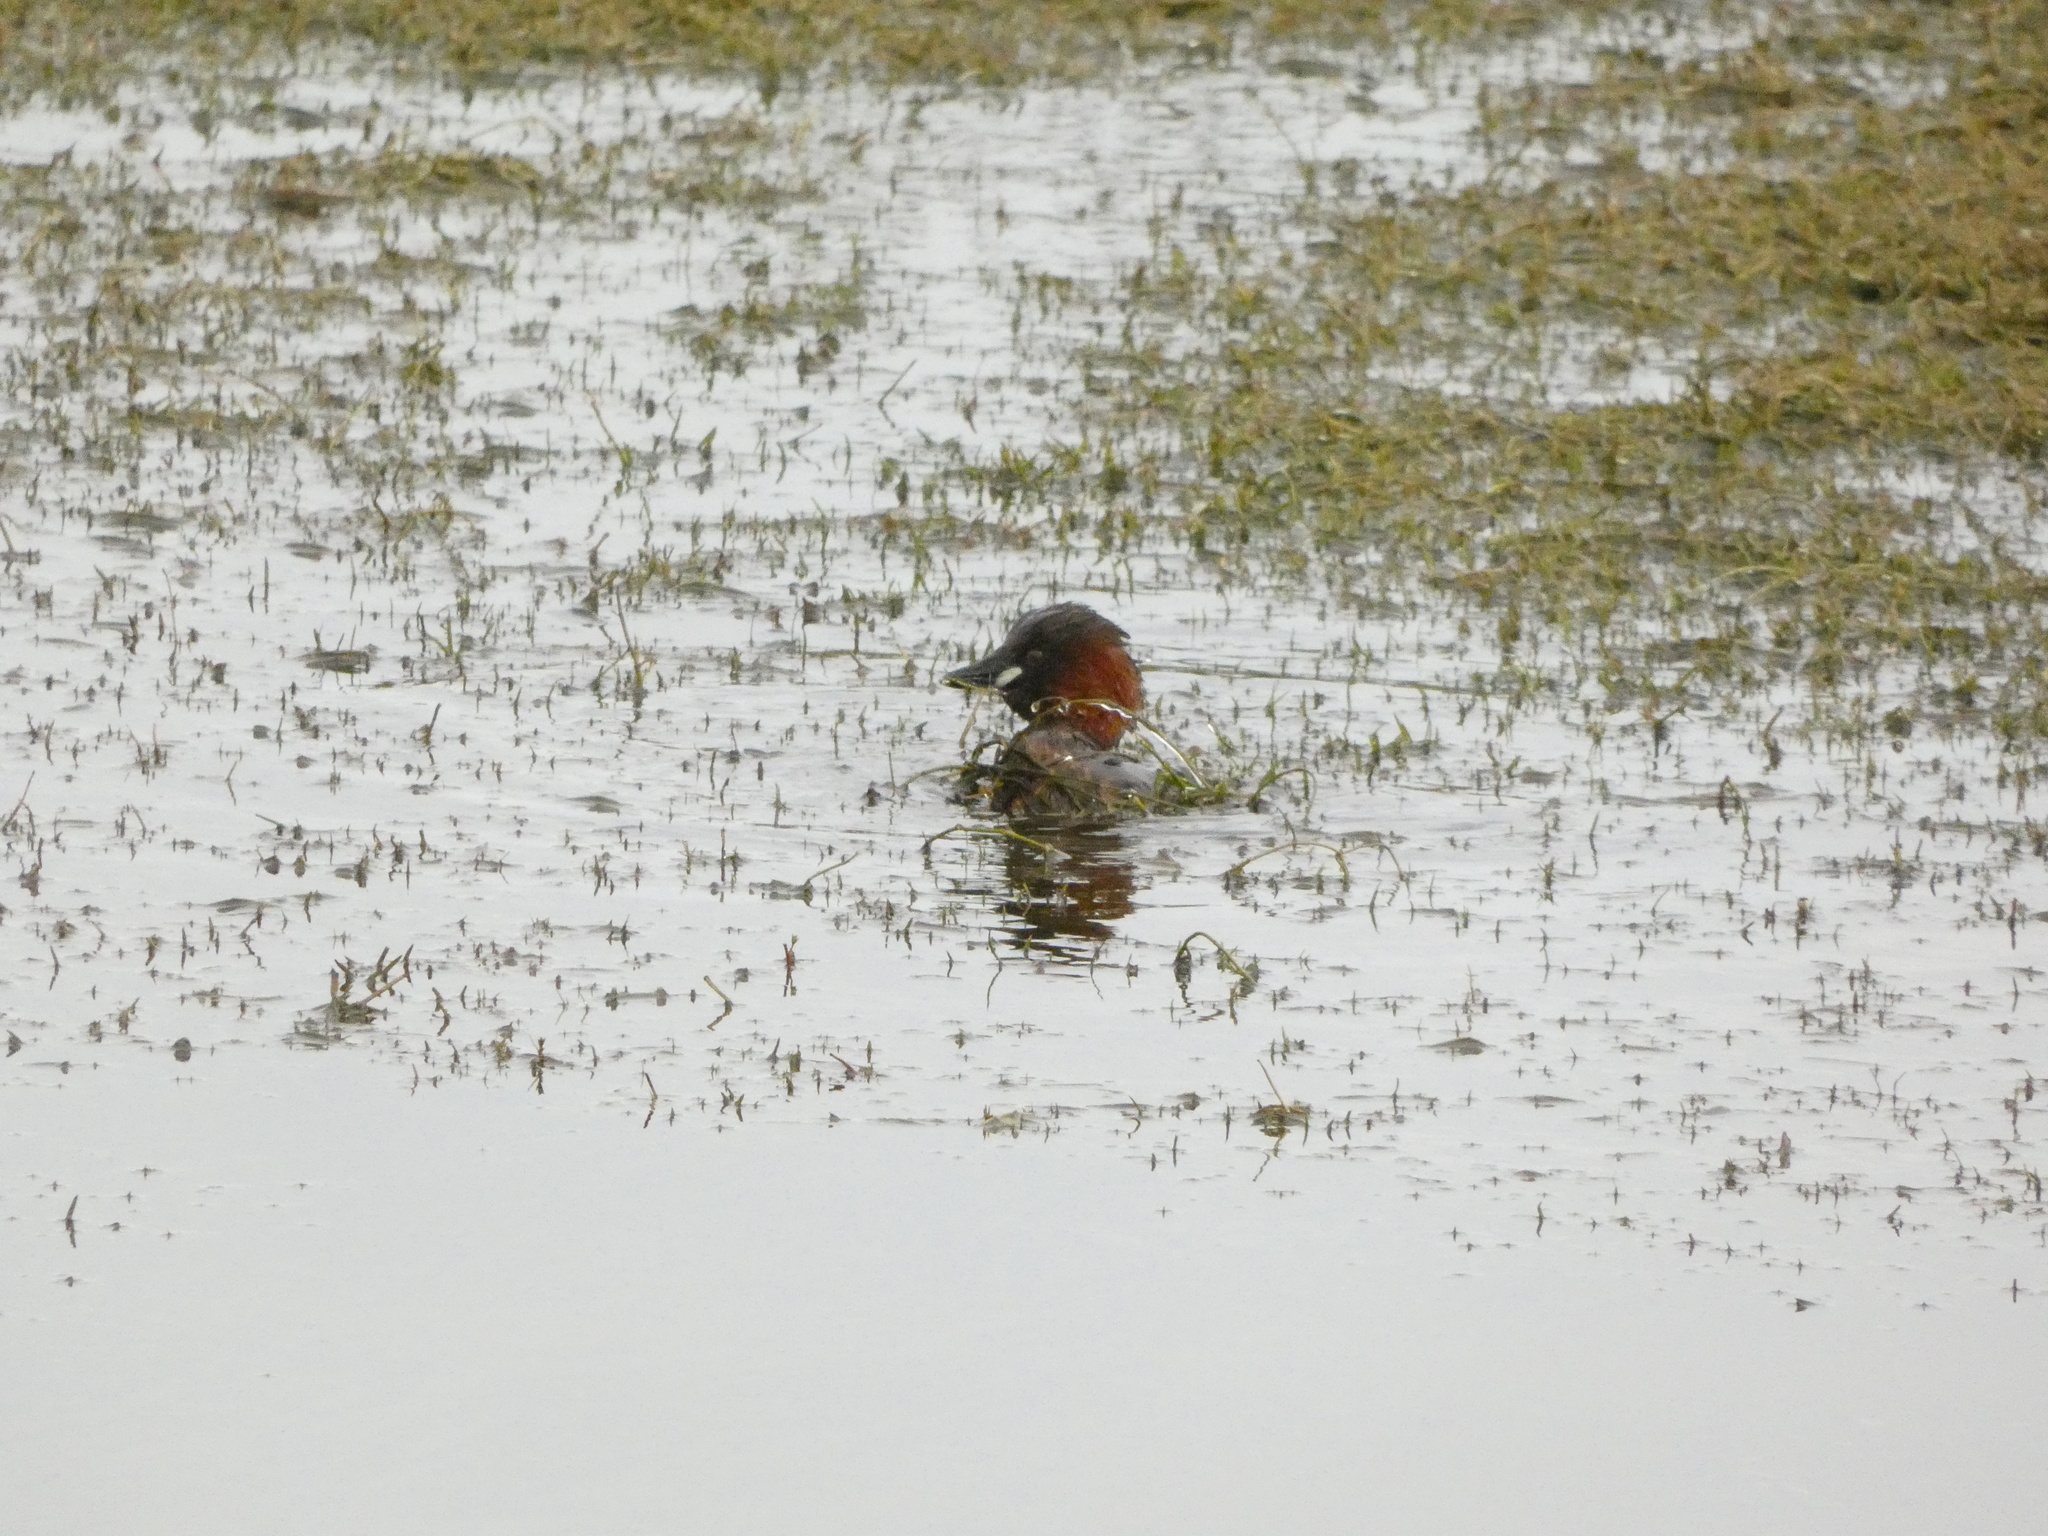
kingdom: Animalia
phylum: Chordata
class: Aves
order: Podicipediformes
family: Podicipedidae
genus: Tachybaptus
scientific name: Tachybaptus ruficollis
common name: Little grebe
